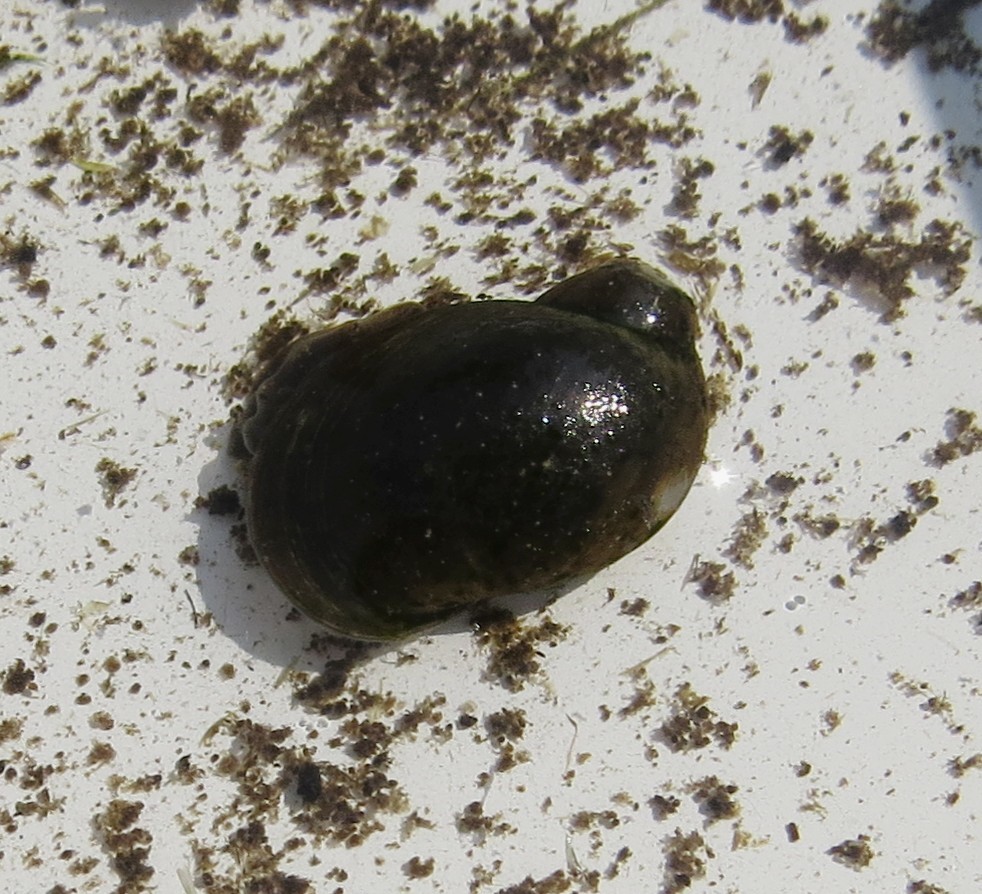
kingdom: Animalia
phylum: Mollusca
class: Gastropoda
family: Lymnaeidae
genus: Ampullaceana
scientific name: Ampullaceana balthica
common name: Wandering pond snail
